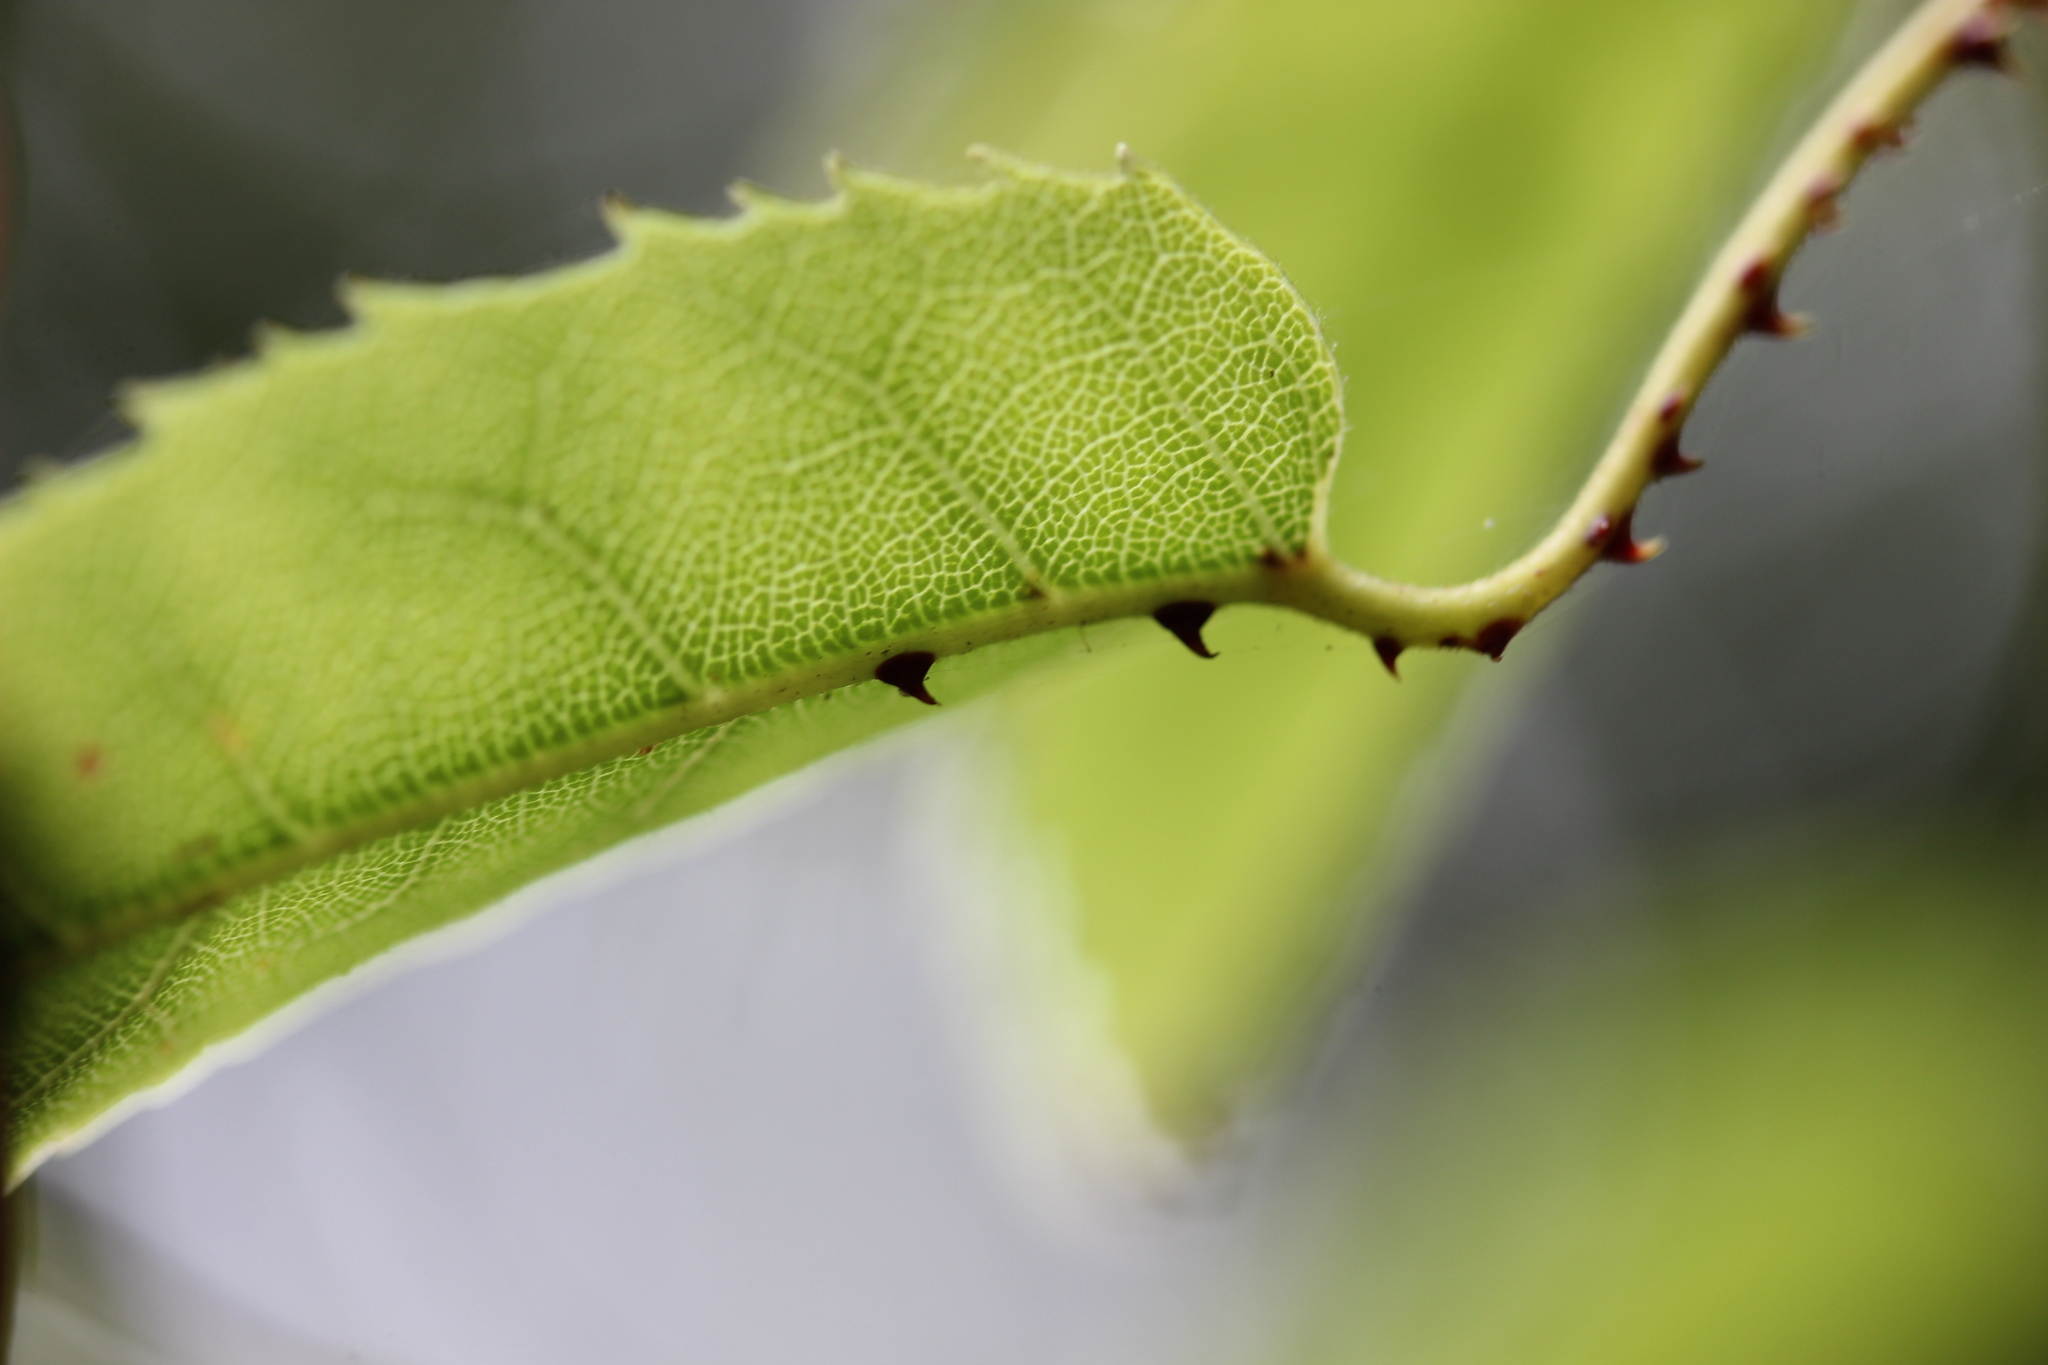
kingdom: Plantae
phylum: Tracheophyta
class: Magnoliopsida
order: Rosales
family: Rosaceae
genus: Rubus
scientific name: Rubus cissoides
